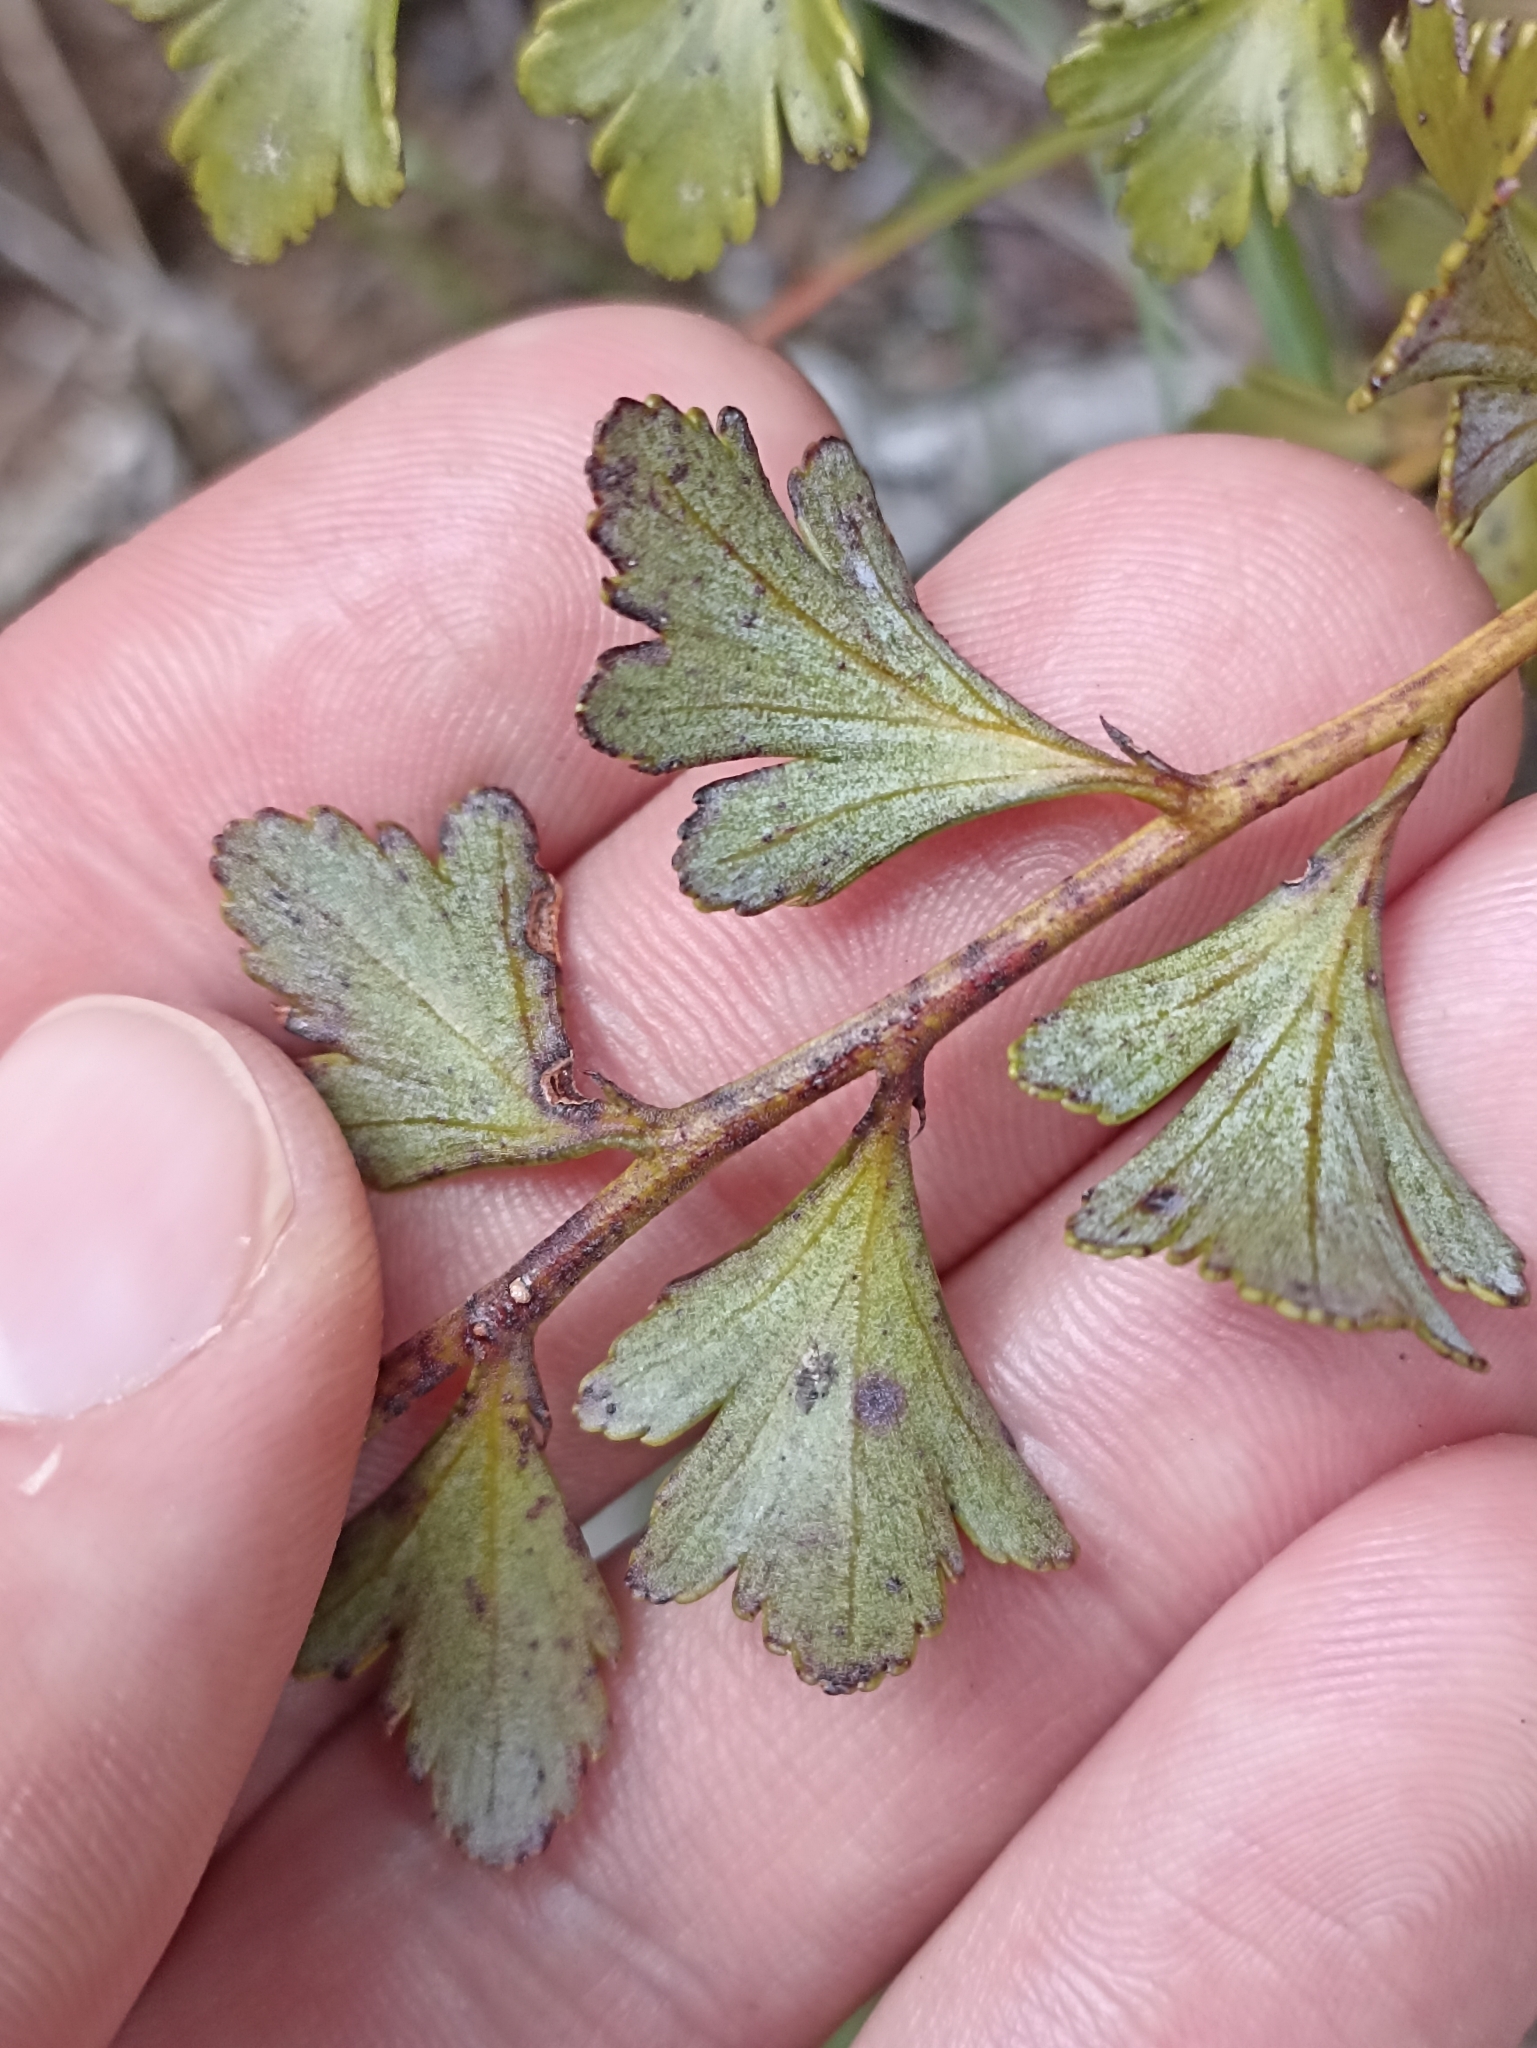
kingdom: Plantae
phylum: Tracheophyta
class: Pinopsida
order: Pinales
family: Phyllocladaceae
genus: Phyllocladus
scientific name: Phyllocladus toatoa
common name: Celery-top pine
